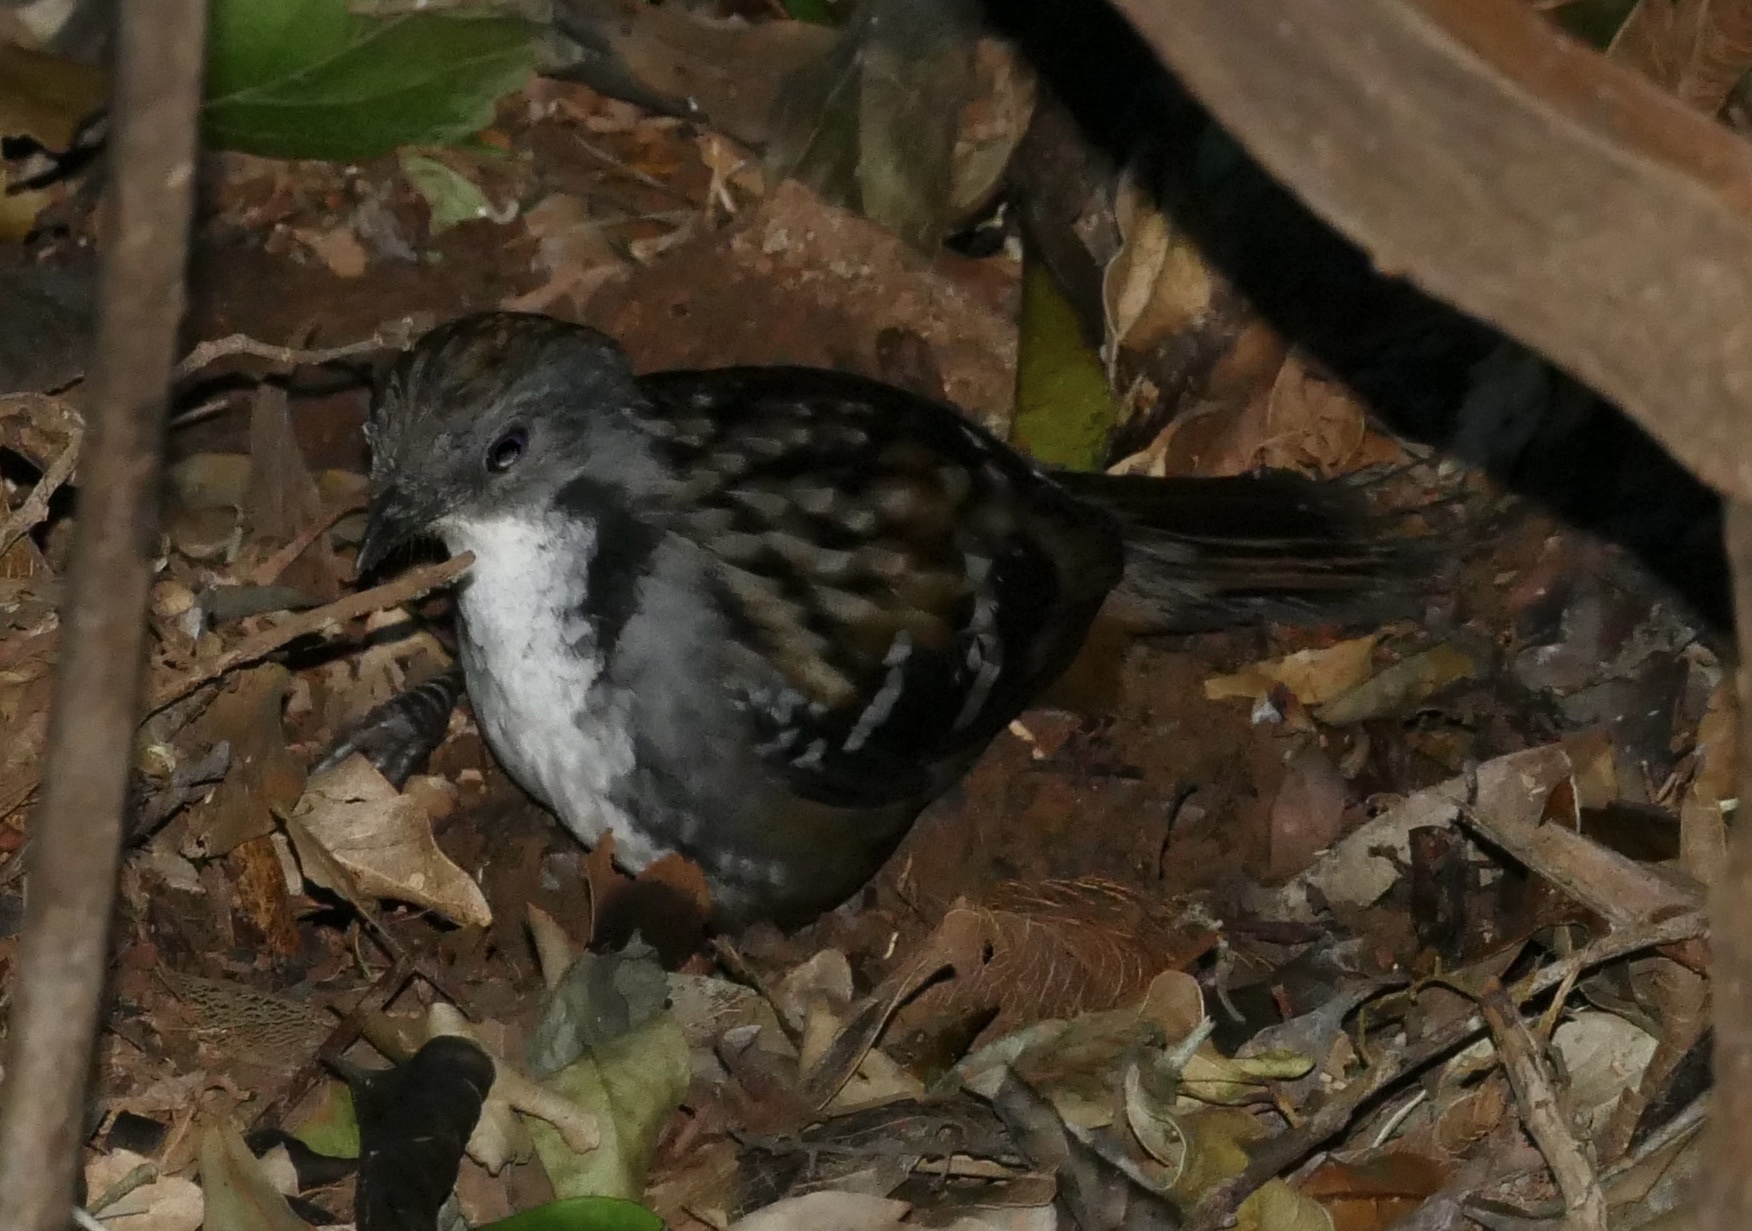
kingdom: Animalia
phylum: Chordata
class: Aves
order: Passeriformes
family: Orthonychidae
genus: Orthonyx
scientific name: Orthonyx temminckii
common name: Australian logrunner
